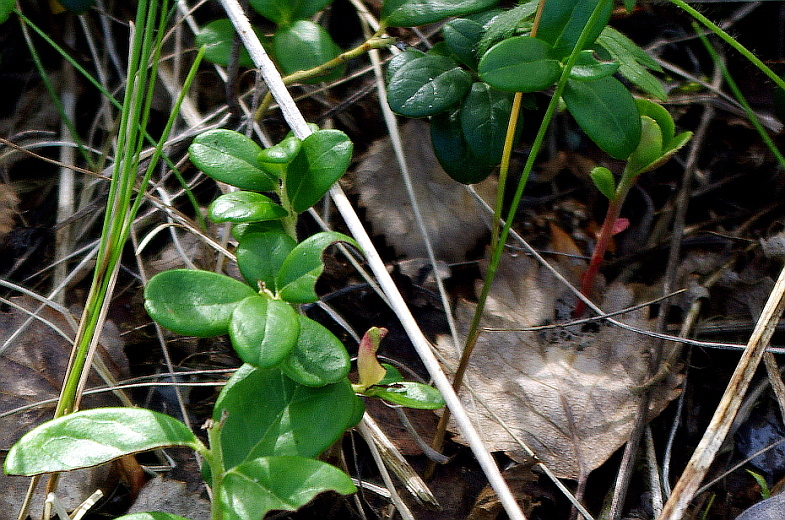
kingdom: Plantae
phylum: Tracheophyta
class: Magnoliopsida
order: Ericales
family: Ericaceae
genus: Vaccinium
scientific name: Vaccinium vitis-idaea
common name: Cowberry
